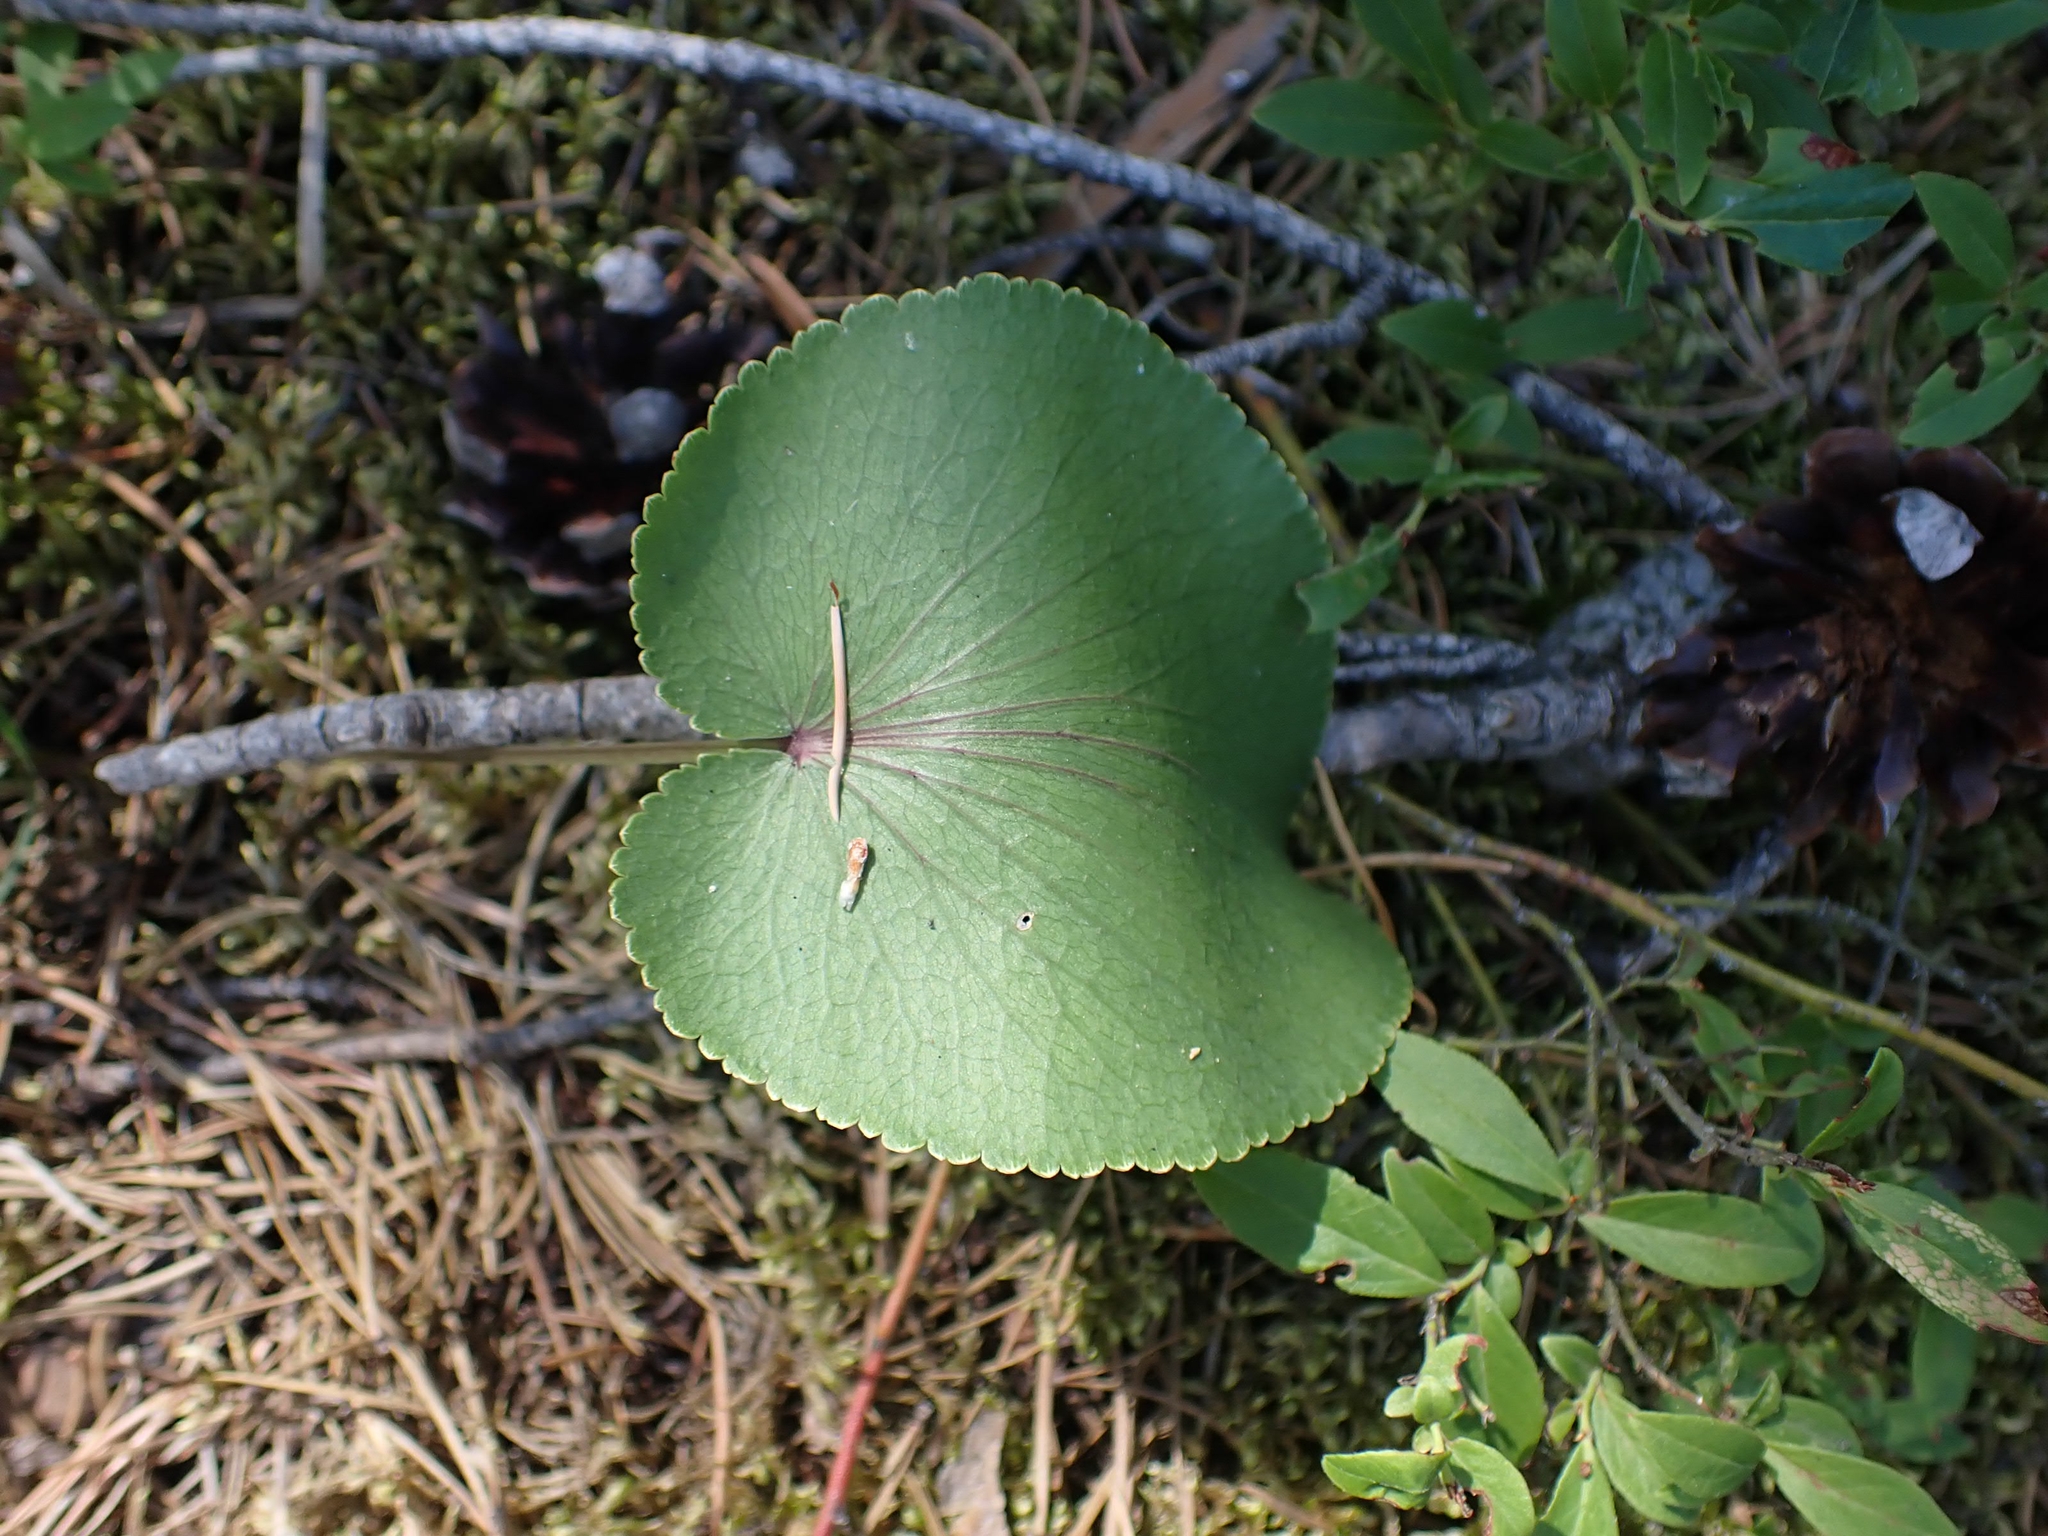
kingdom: Plantae
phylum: Tracheophyta
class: Magnoliopsida
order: Apiales
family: Apiaceae
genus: Zizia
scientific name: Zizia aptera
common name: Heart-leaved alexanders
